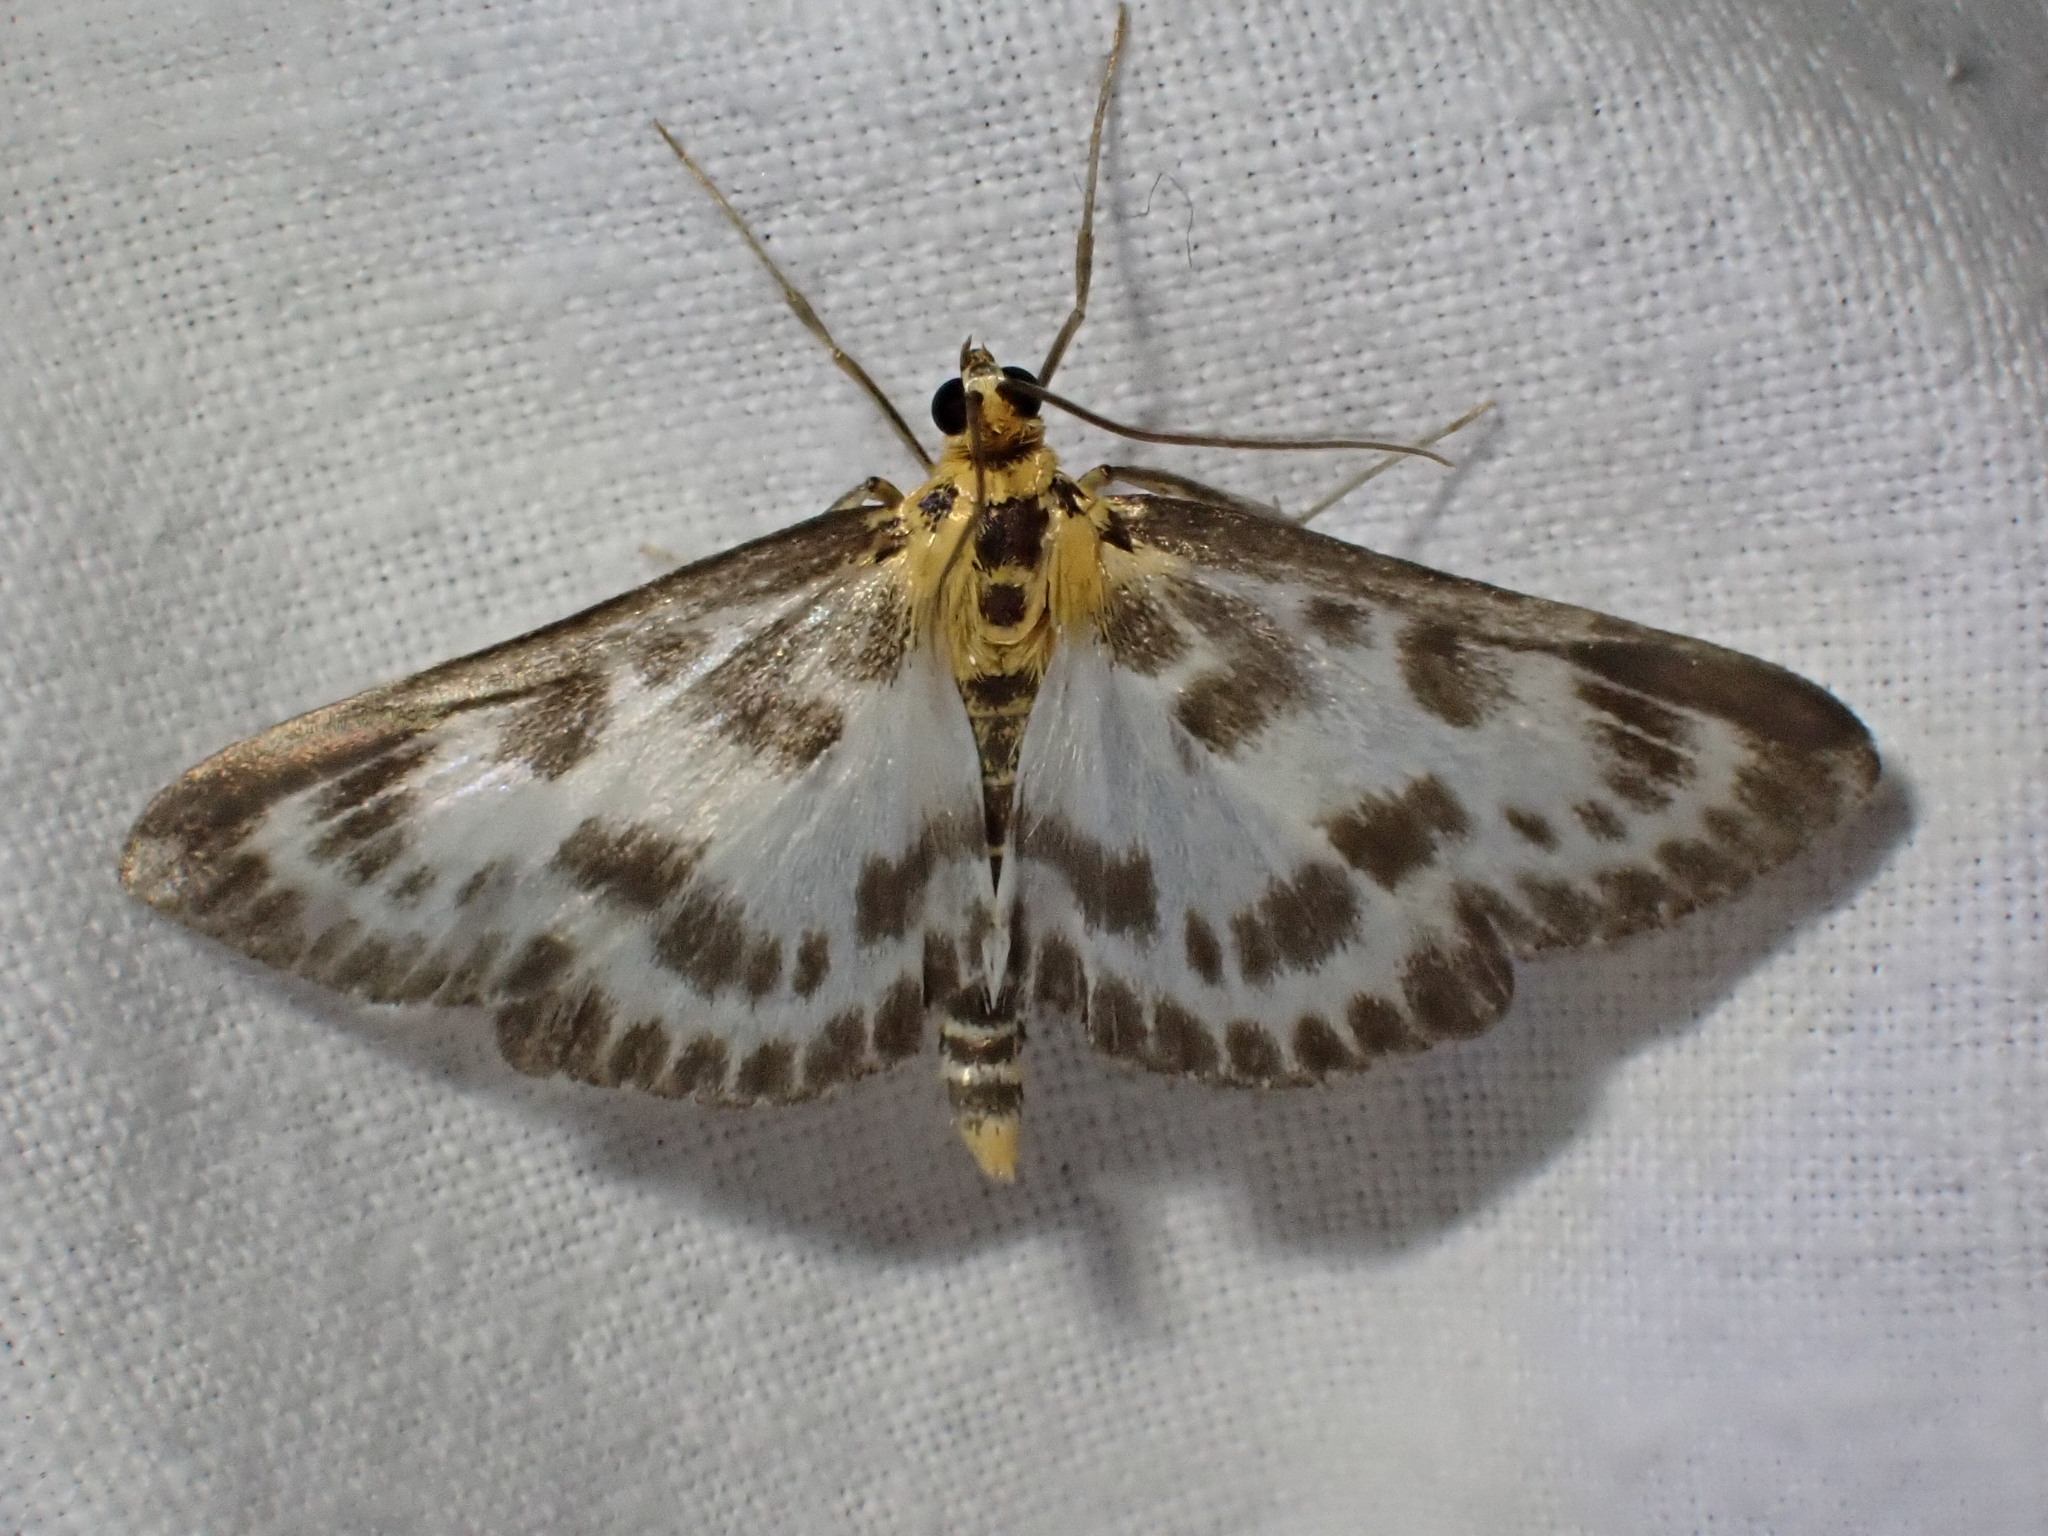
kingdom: Animalia
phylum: Arthropoda
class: Insecta
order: Lepidoptera
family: Crambidae
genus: Anania
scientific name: Anania hortulata
